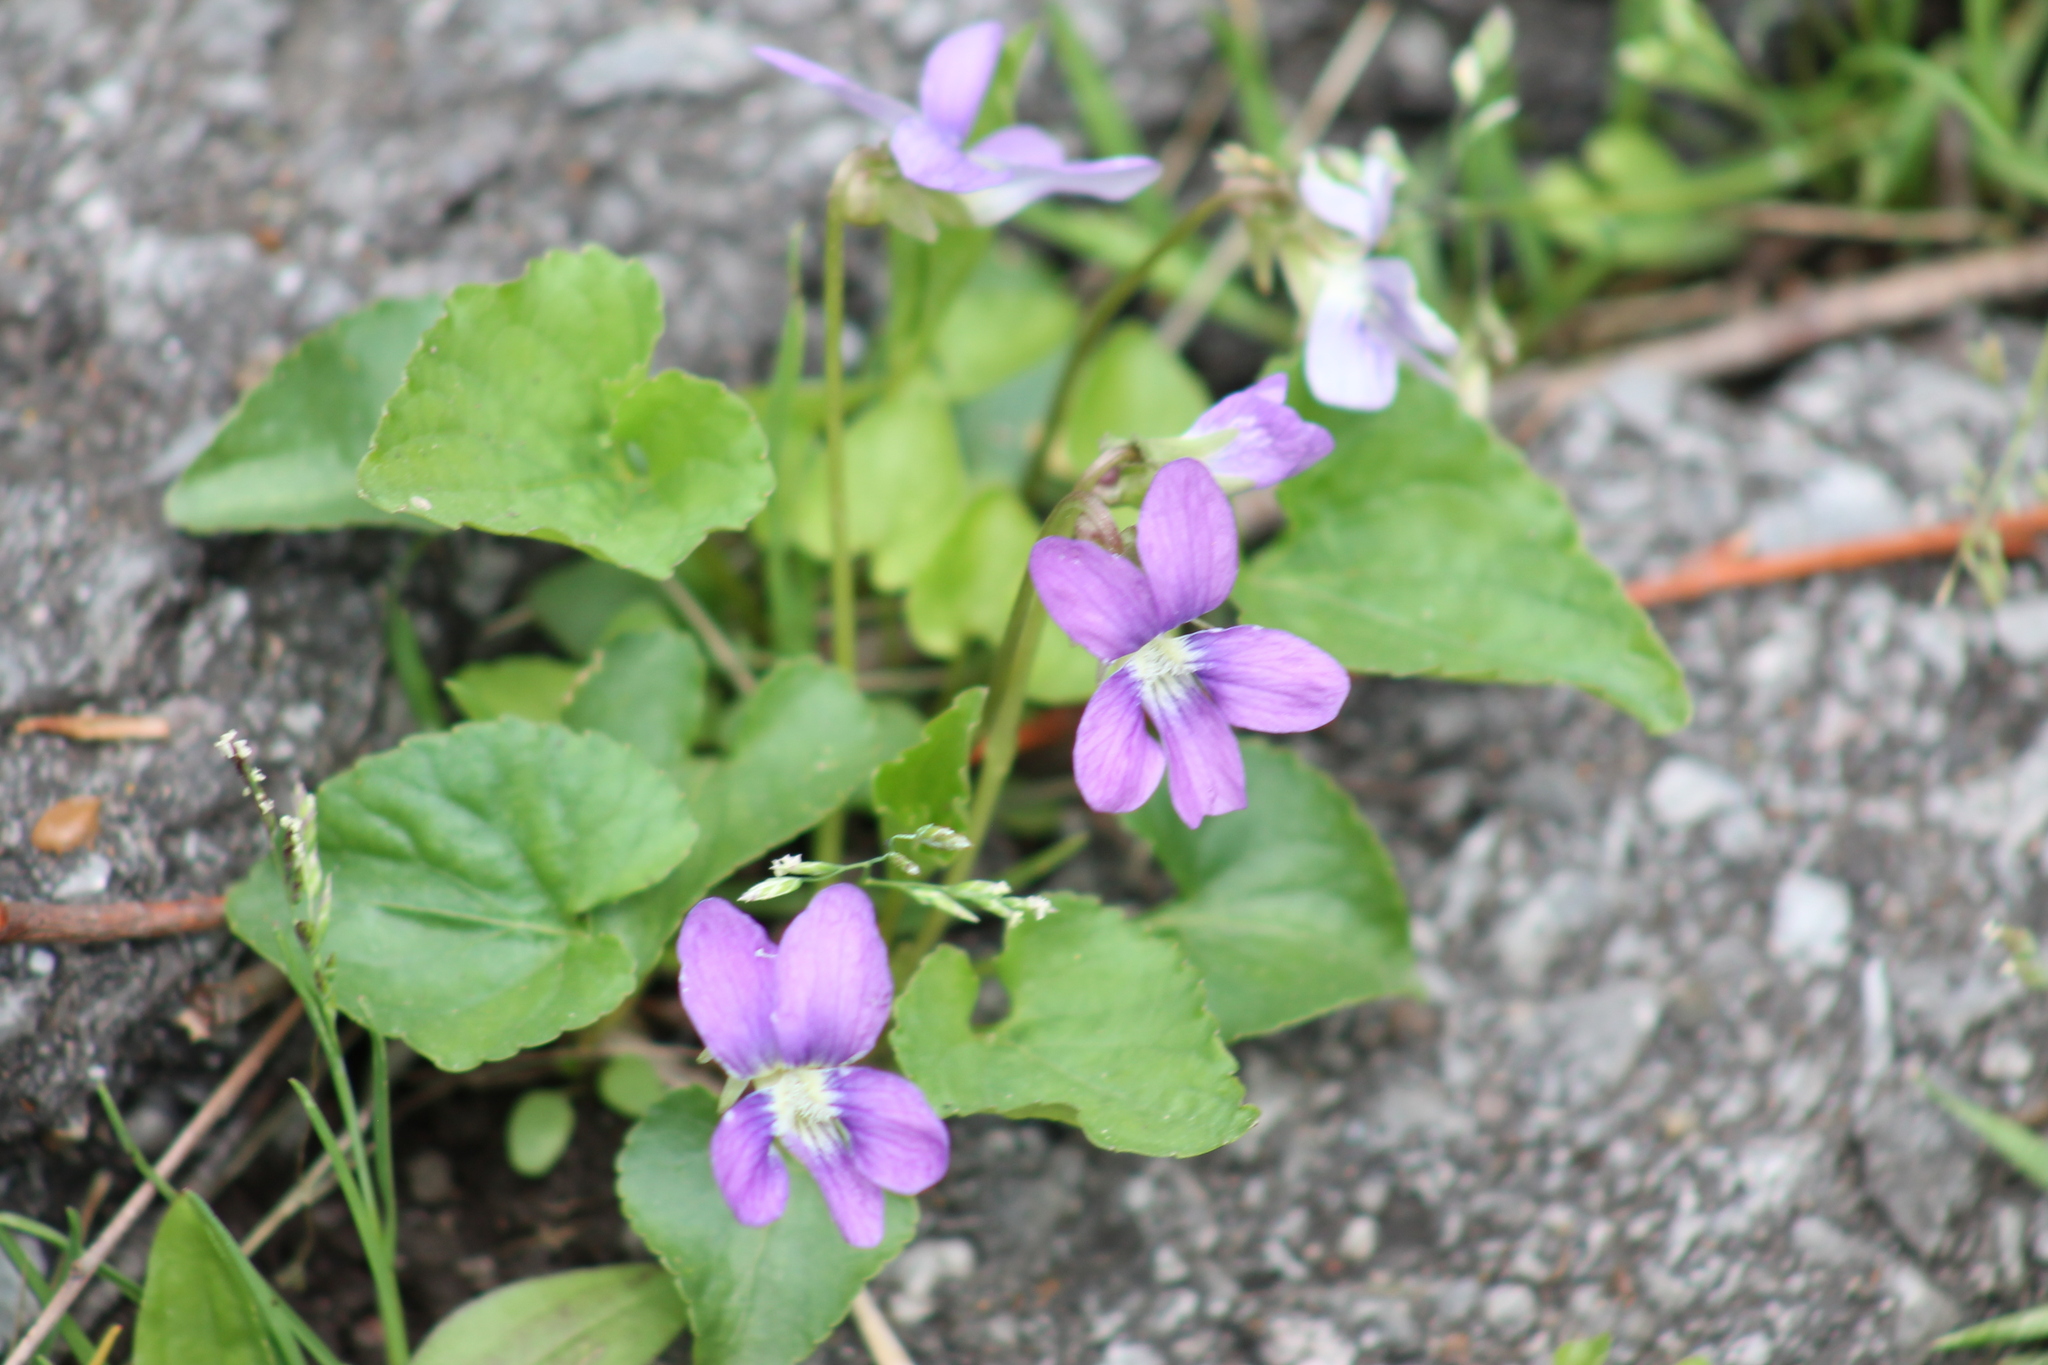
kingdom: Plantae
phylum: Tracheophyta
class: Magnoliopsida
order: Malpighiales
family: Violaceae
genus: Viola
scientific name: Viola sororia
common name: Dooryard violet
